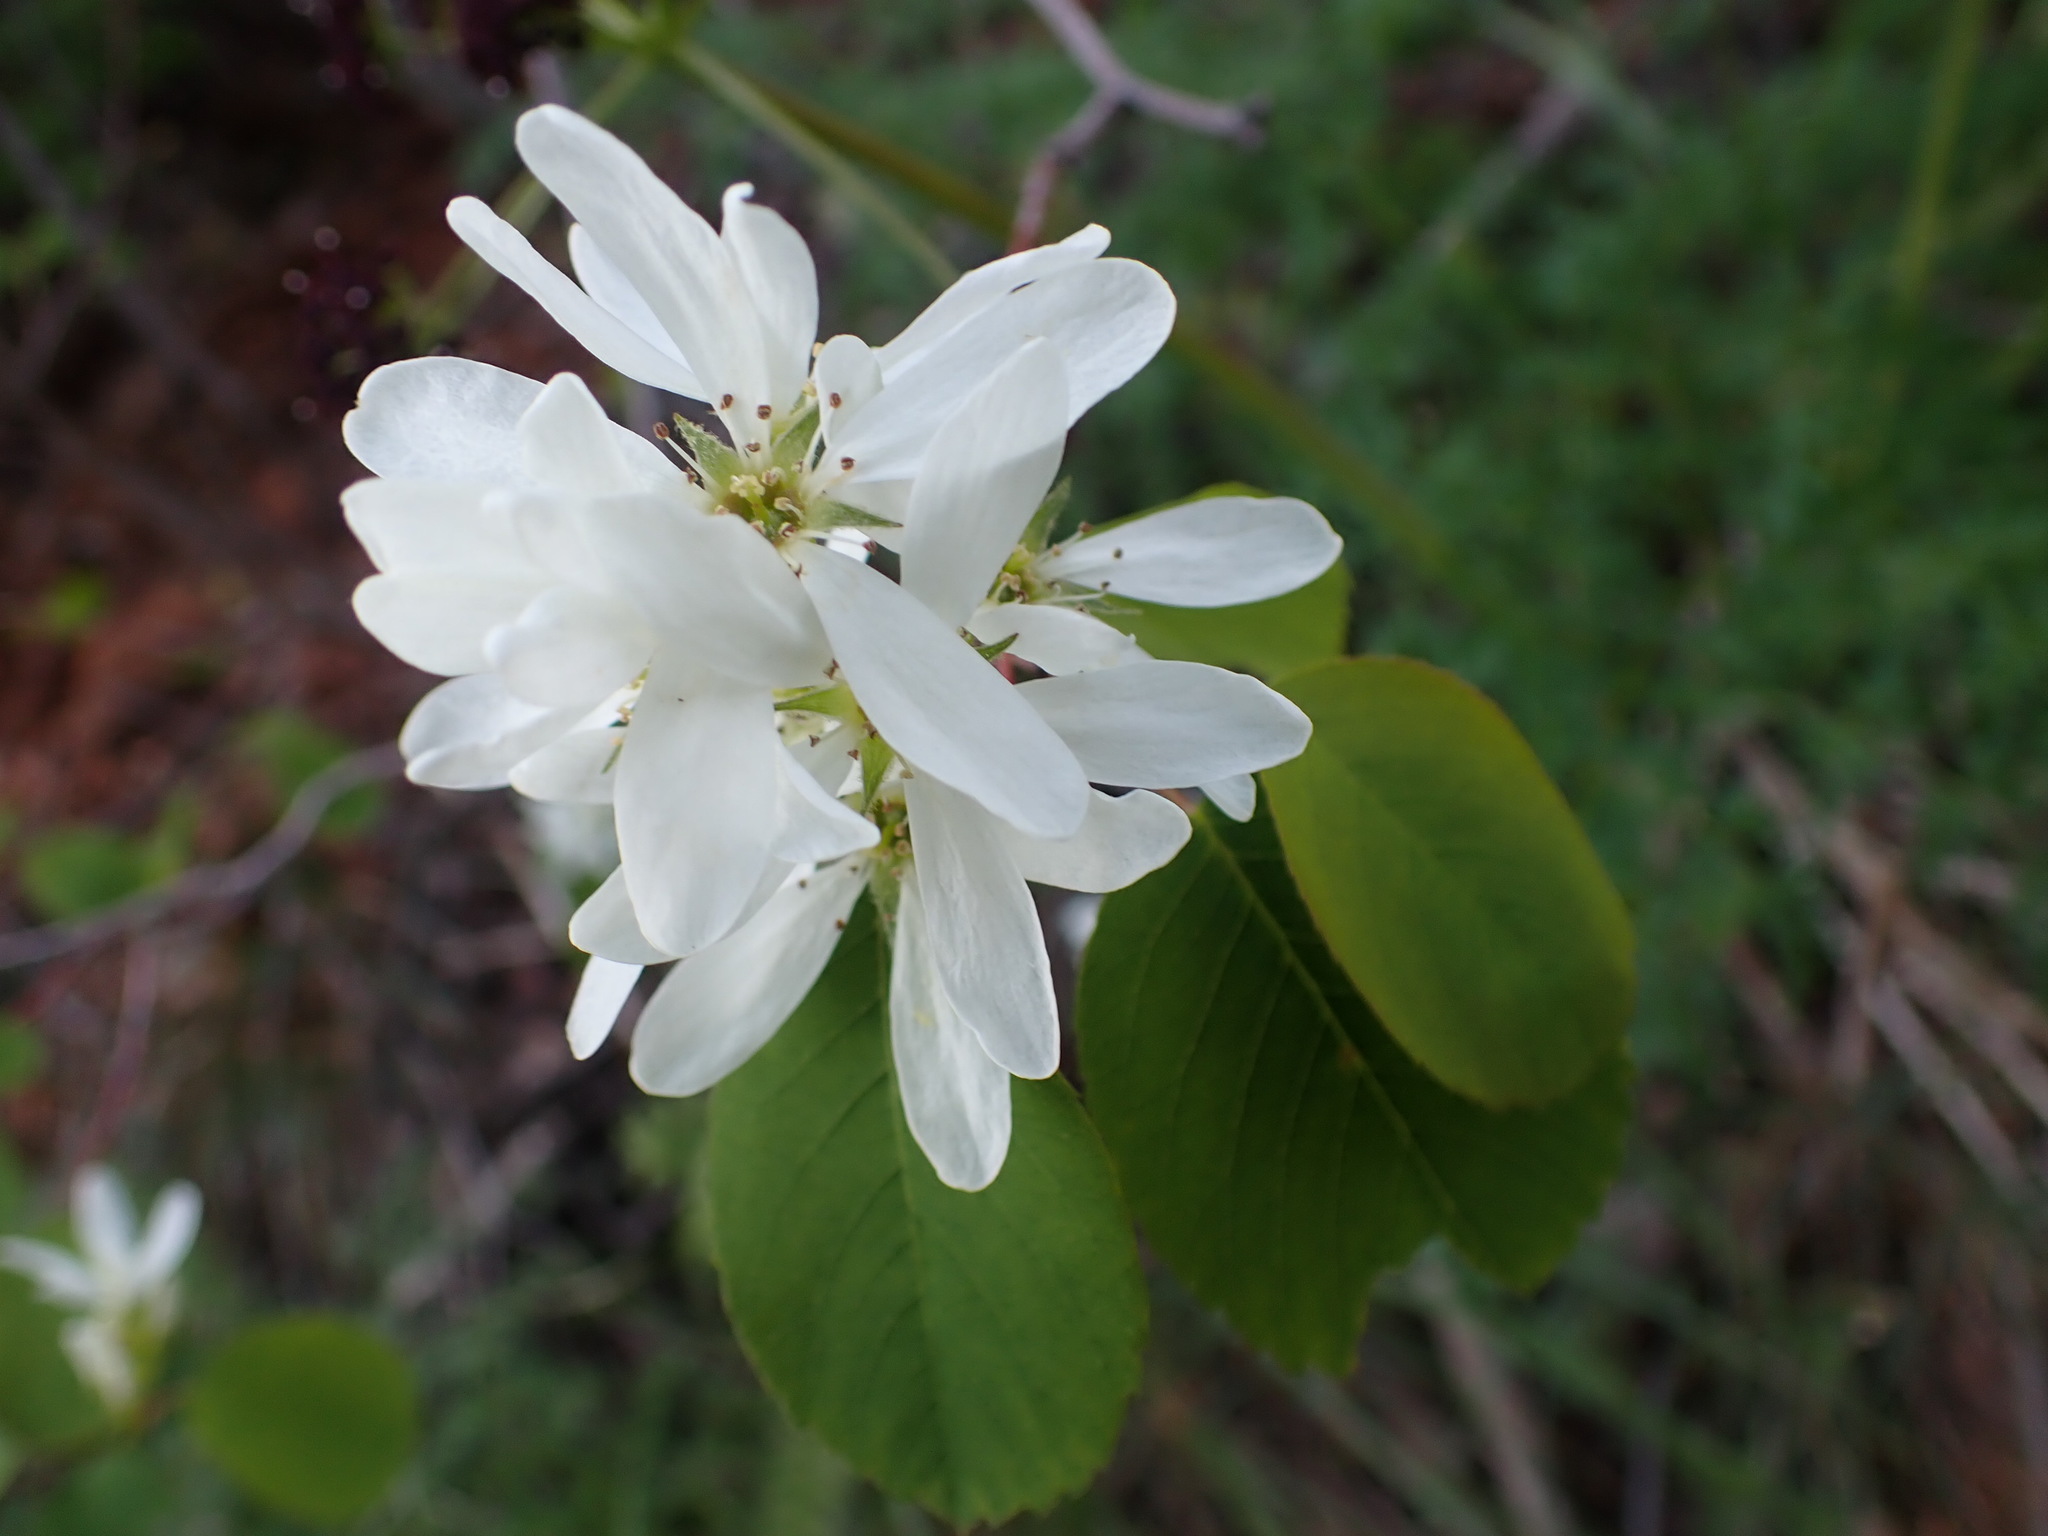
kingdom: Plantae
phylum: Tracheophyta
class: Magnoliopsida
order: Rosales
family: Rosaceae
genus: Amelanchier
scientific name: Amelanchier alnifolia
